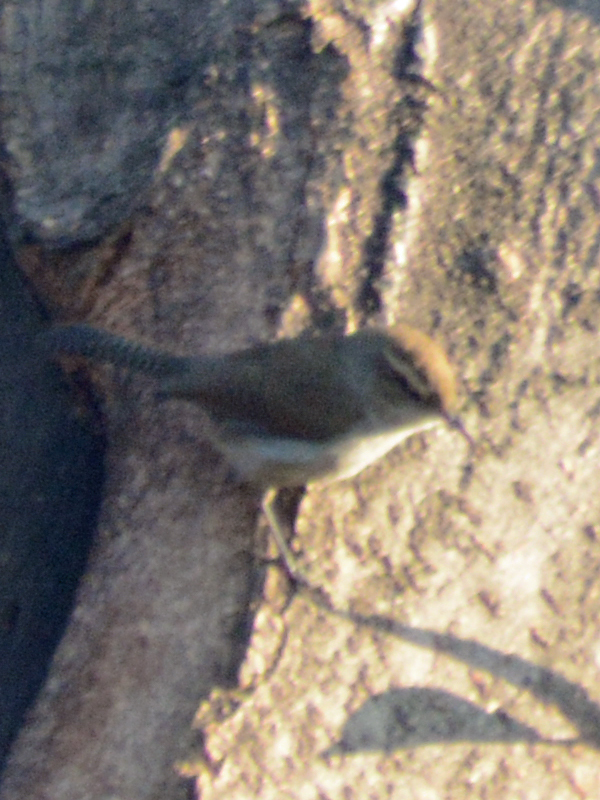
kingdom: Animalia
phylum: Chordata
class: Aves
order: Passeriformes
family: Troglodytidae
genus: Thryomanes
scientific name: Thryomanes bewickii
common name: Bewick's wren
